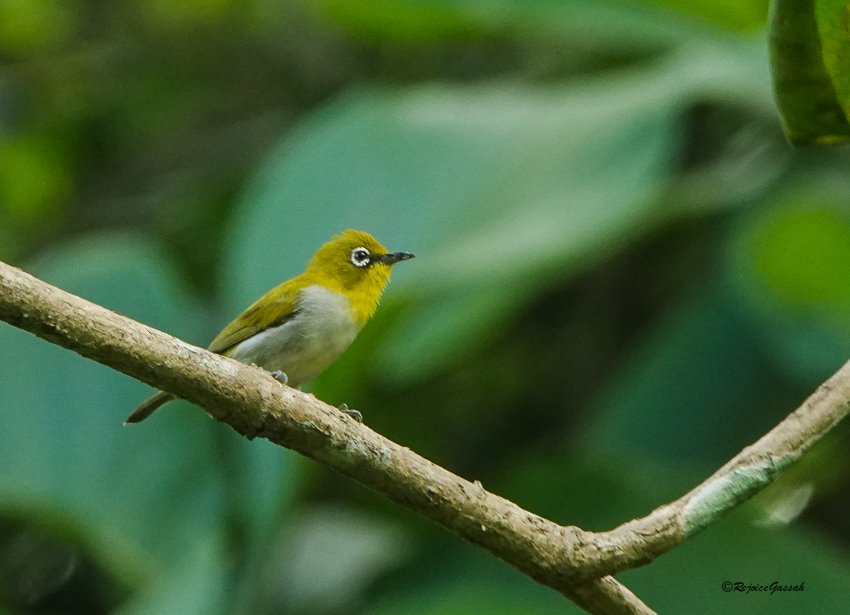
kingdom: Animalia
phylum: Chordata
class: Aves
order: Passeriformes
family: Zosteropidae
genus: Zosterops
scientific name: Zosterops palpebrosus
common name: Oriental white-eye
